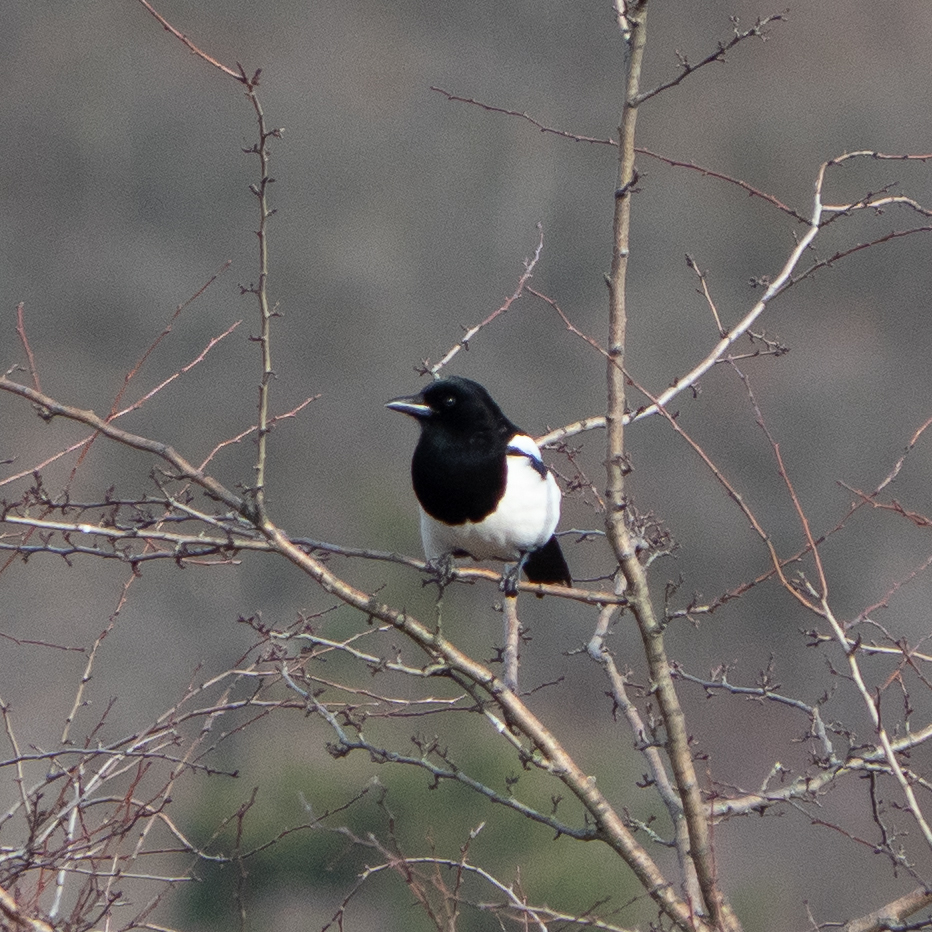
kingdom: Animalia
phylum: Chordata
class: Aves
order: Passeriformes
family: Corvidae
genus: Pica
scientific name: Pica pica
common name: Eurasian magpie
